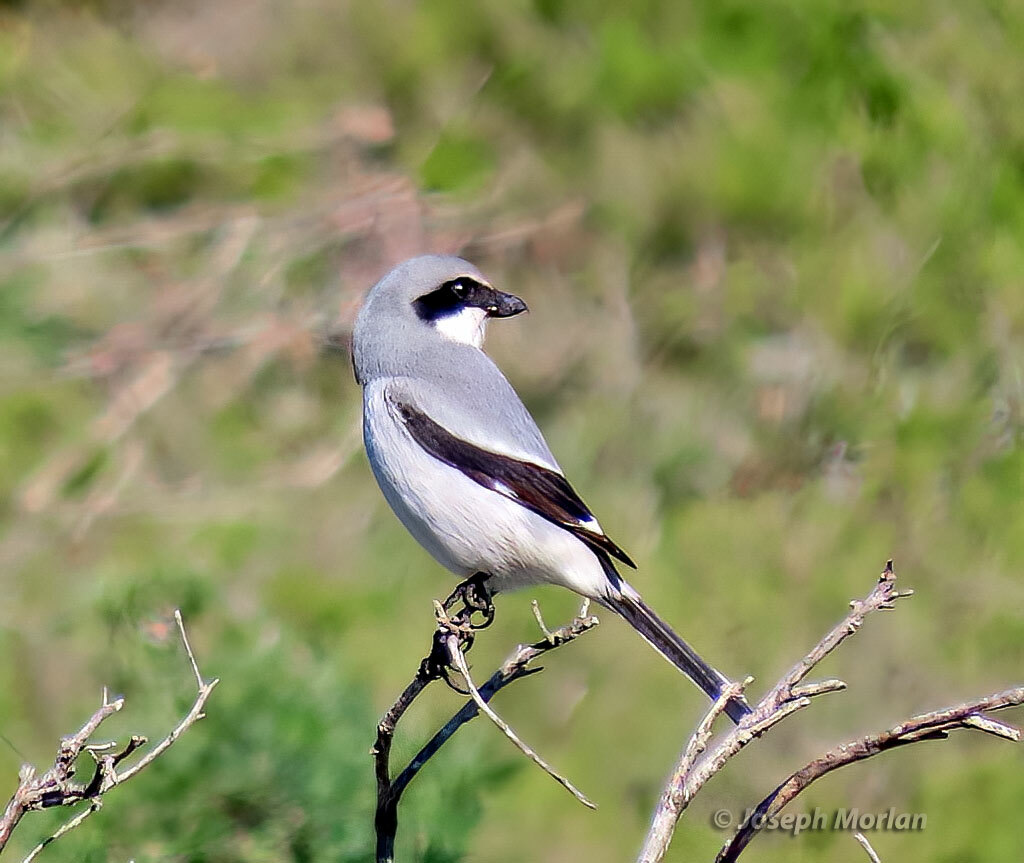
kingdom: Animalia
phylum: Chordata
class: Aves
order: Passeriformes
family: Laniidae
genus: Lanius
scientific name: Lanius ludovicianus
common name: Loggerhead shrike
